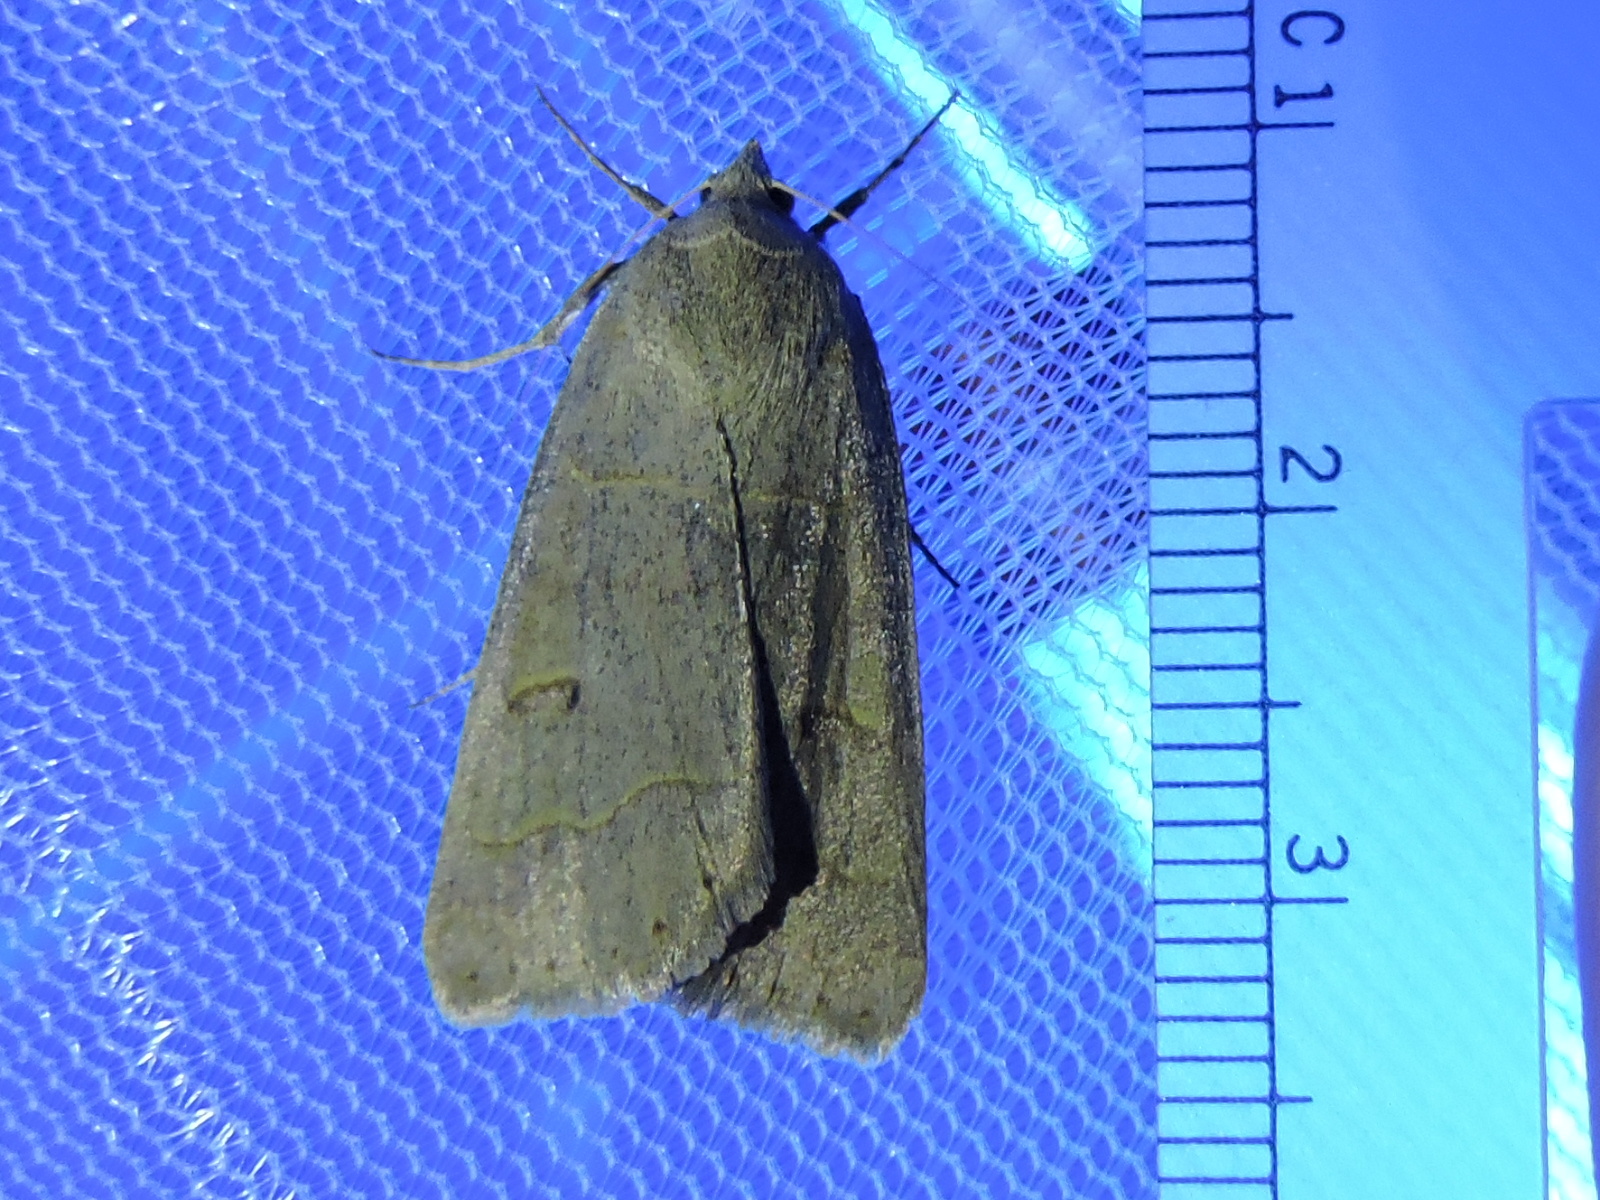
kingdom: Animalia
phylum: Arthropoda
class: Insecta
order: Lepidoptera
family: Erebidae
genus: Phoberia
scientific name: Phoberia atomaris
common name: Common oak moth
